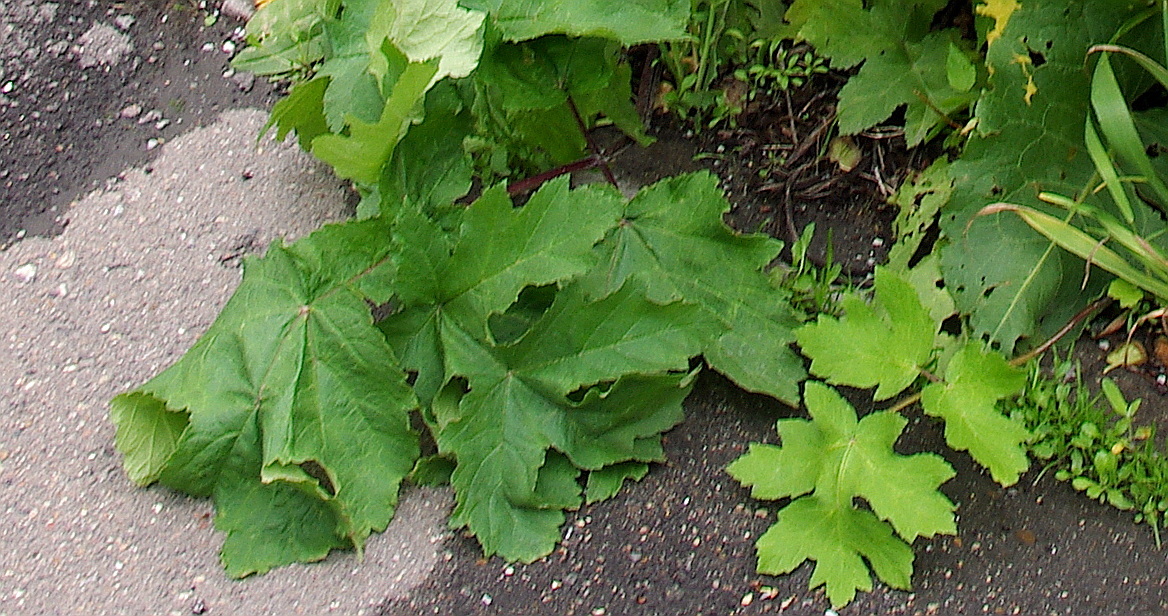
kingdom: Plantae
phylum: Tracheophyta
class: Magnoliopsida
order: Apiales
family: Apiaceae
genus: Heracleum
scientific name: Heracleum sphondylium
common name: Hogweed
